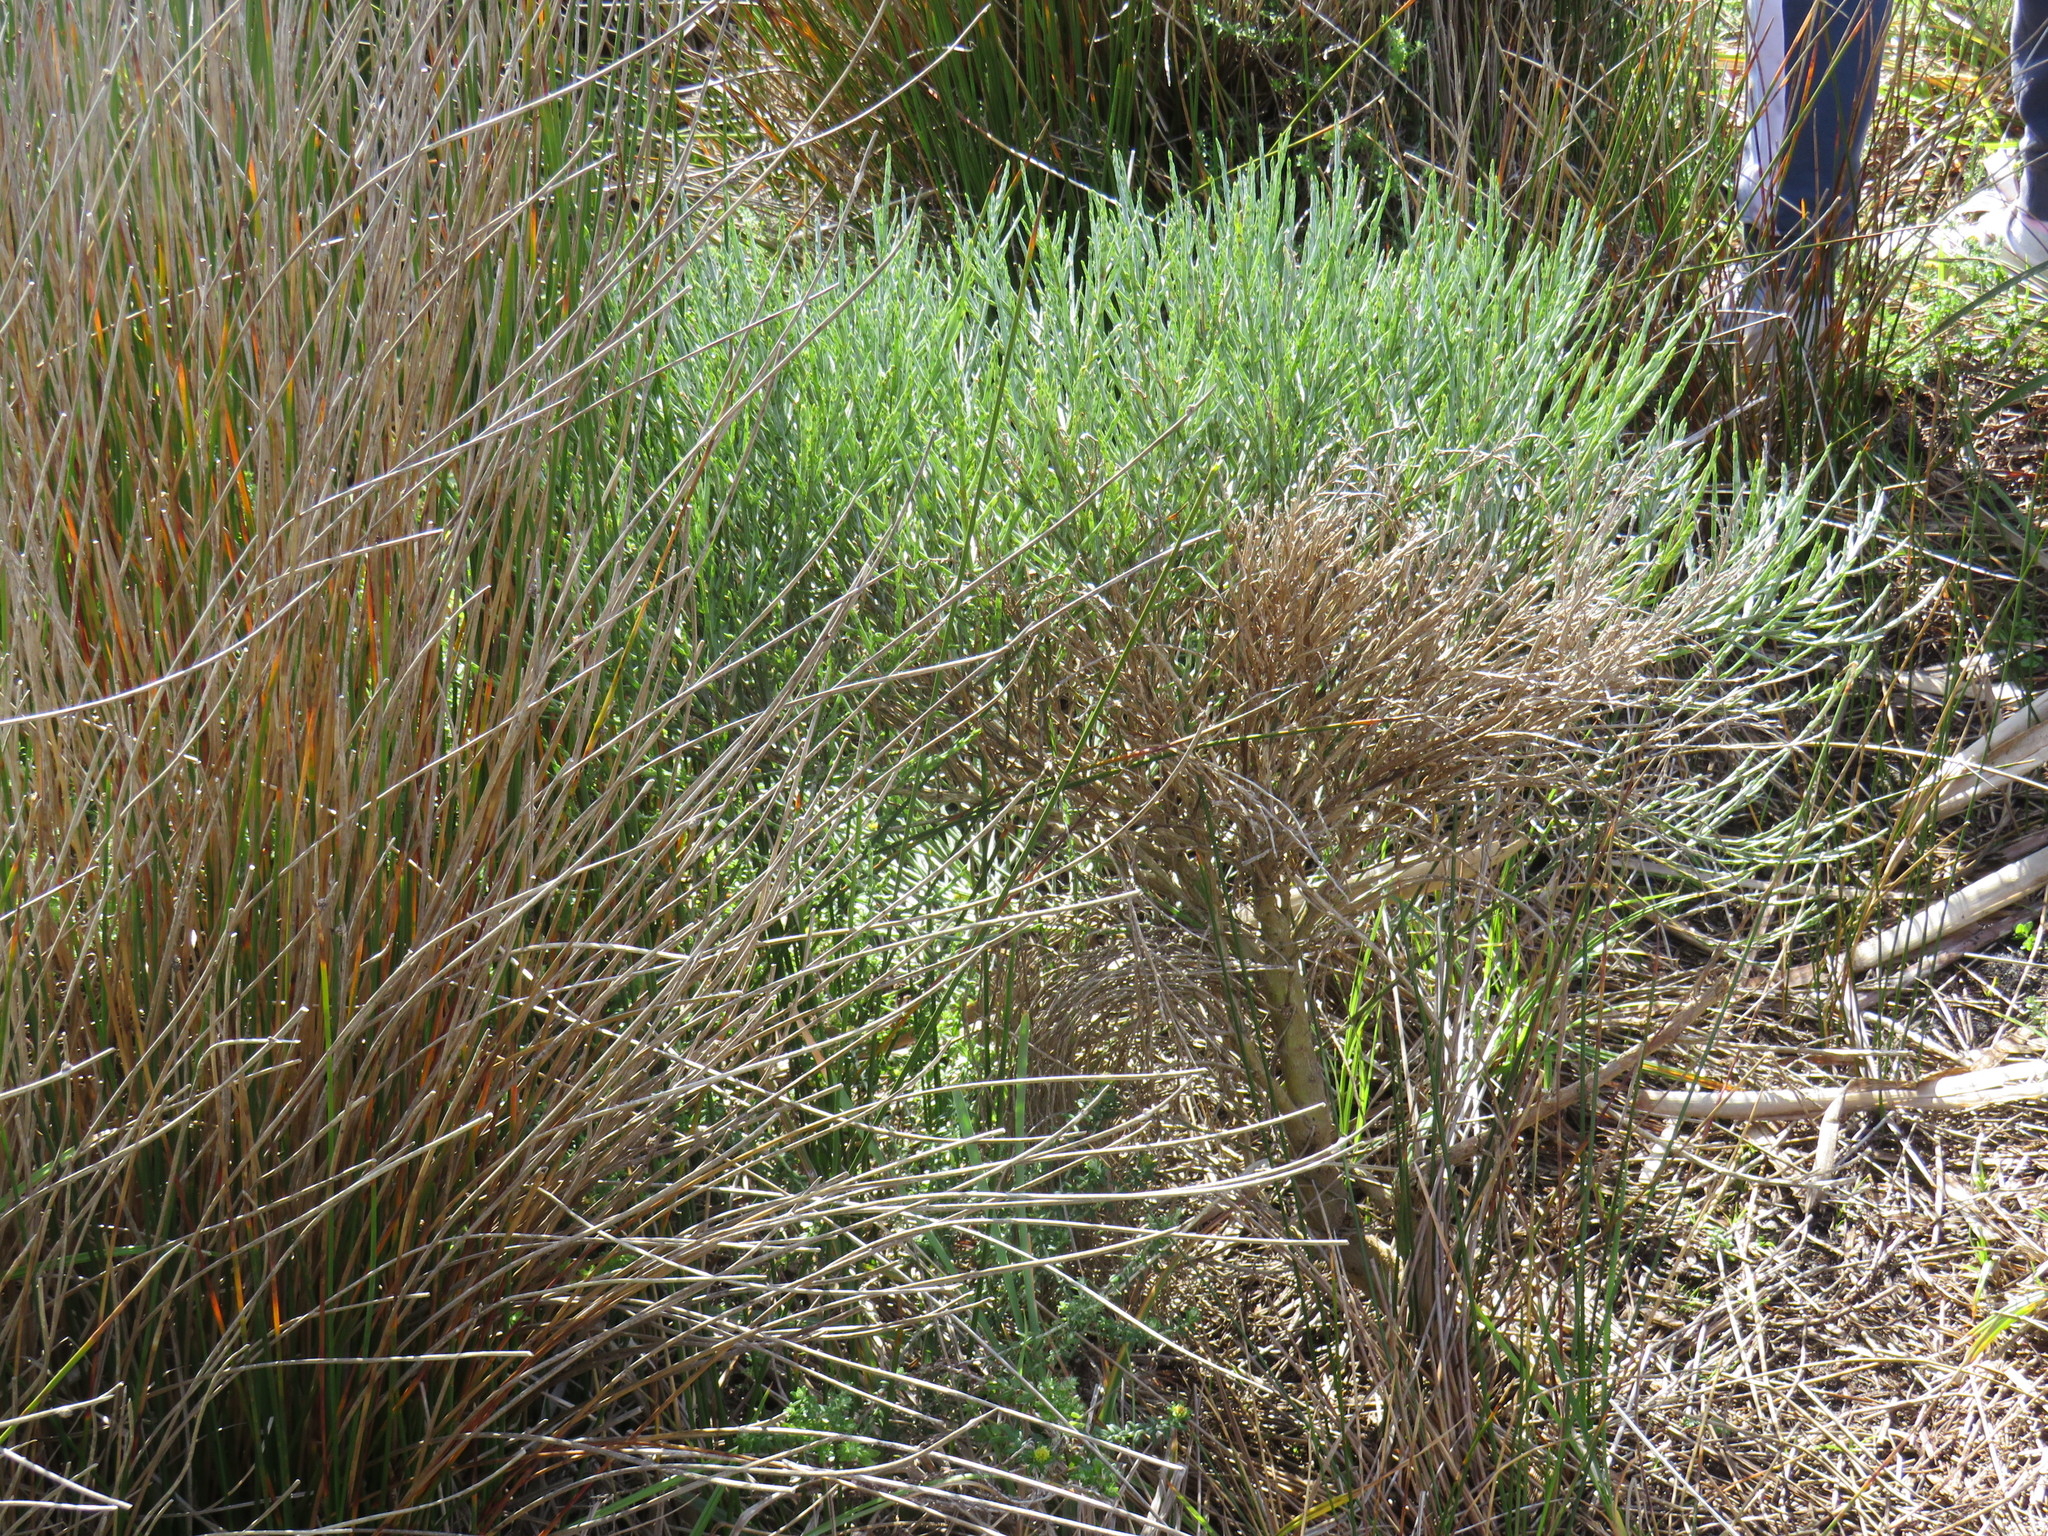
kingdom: Plantae
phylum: Tracheophyta
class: Magnoliopsida
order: Fabales
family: Fabaceae
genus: Psoralea
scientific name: Psoralea aphylla
